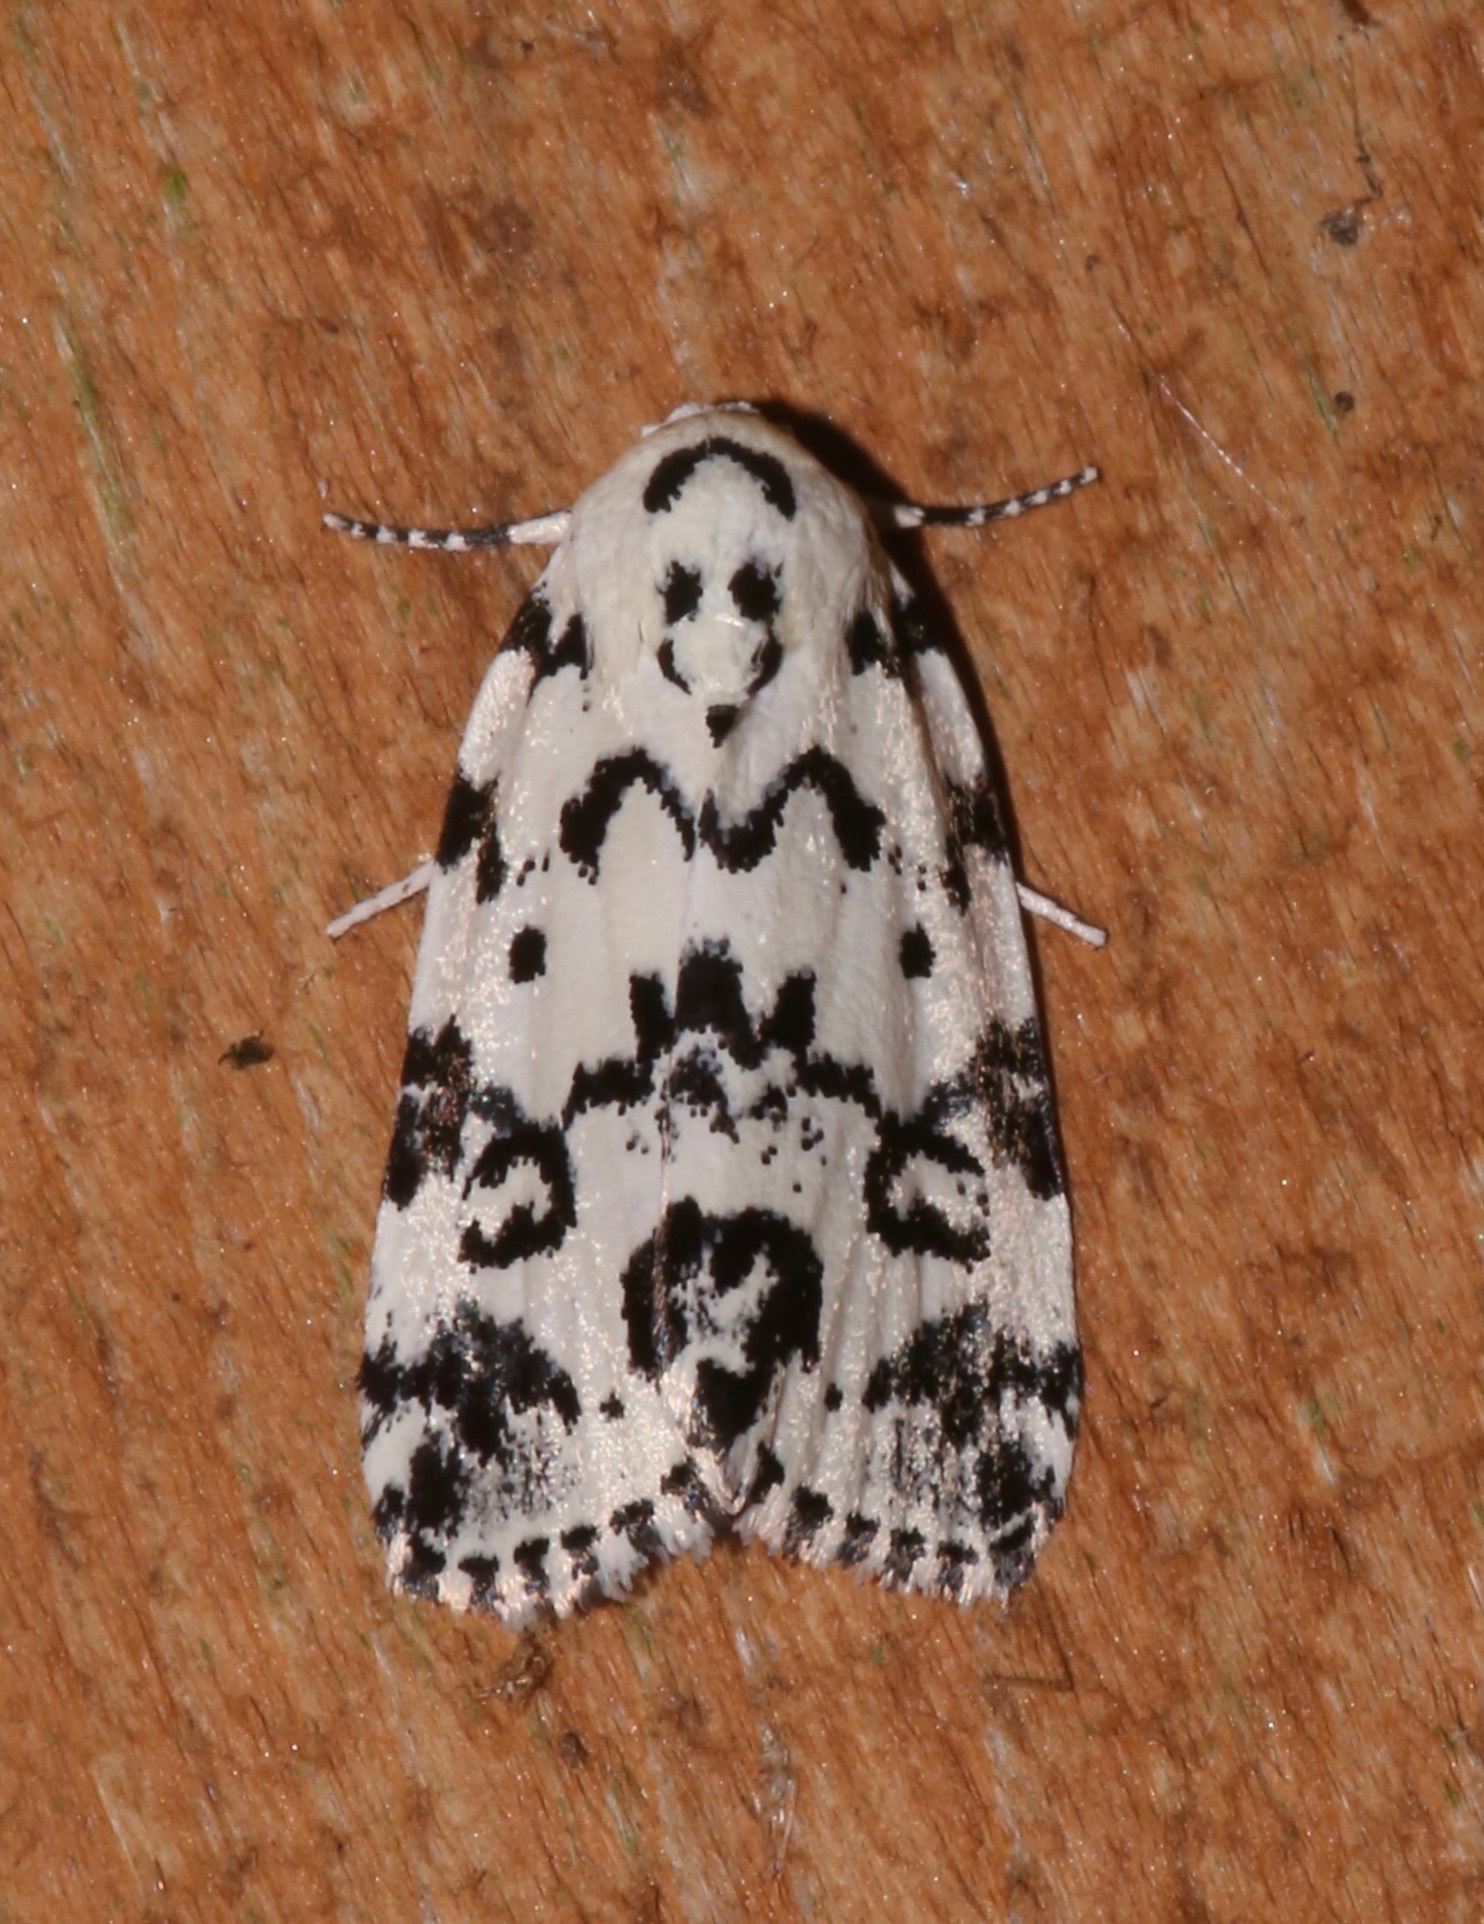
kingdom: Animalia
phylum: Arthropoda
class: Insecta
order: Lepidoptera
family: Noctuidae
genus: Polygrammate
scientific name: Polygrammate hebraeicum
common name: Hebrew moth
